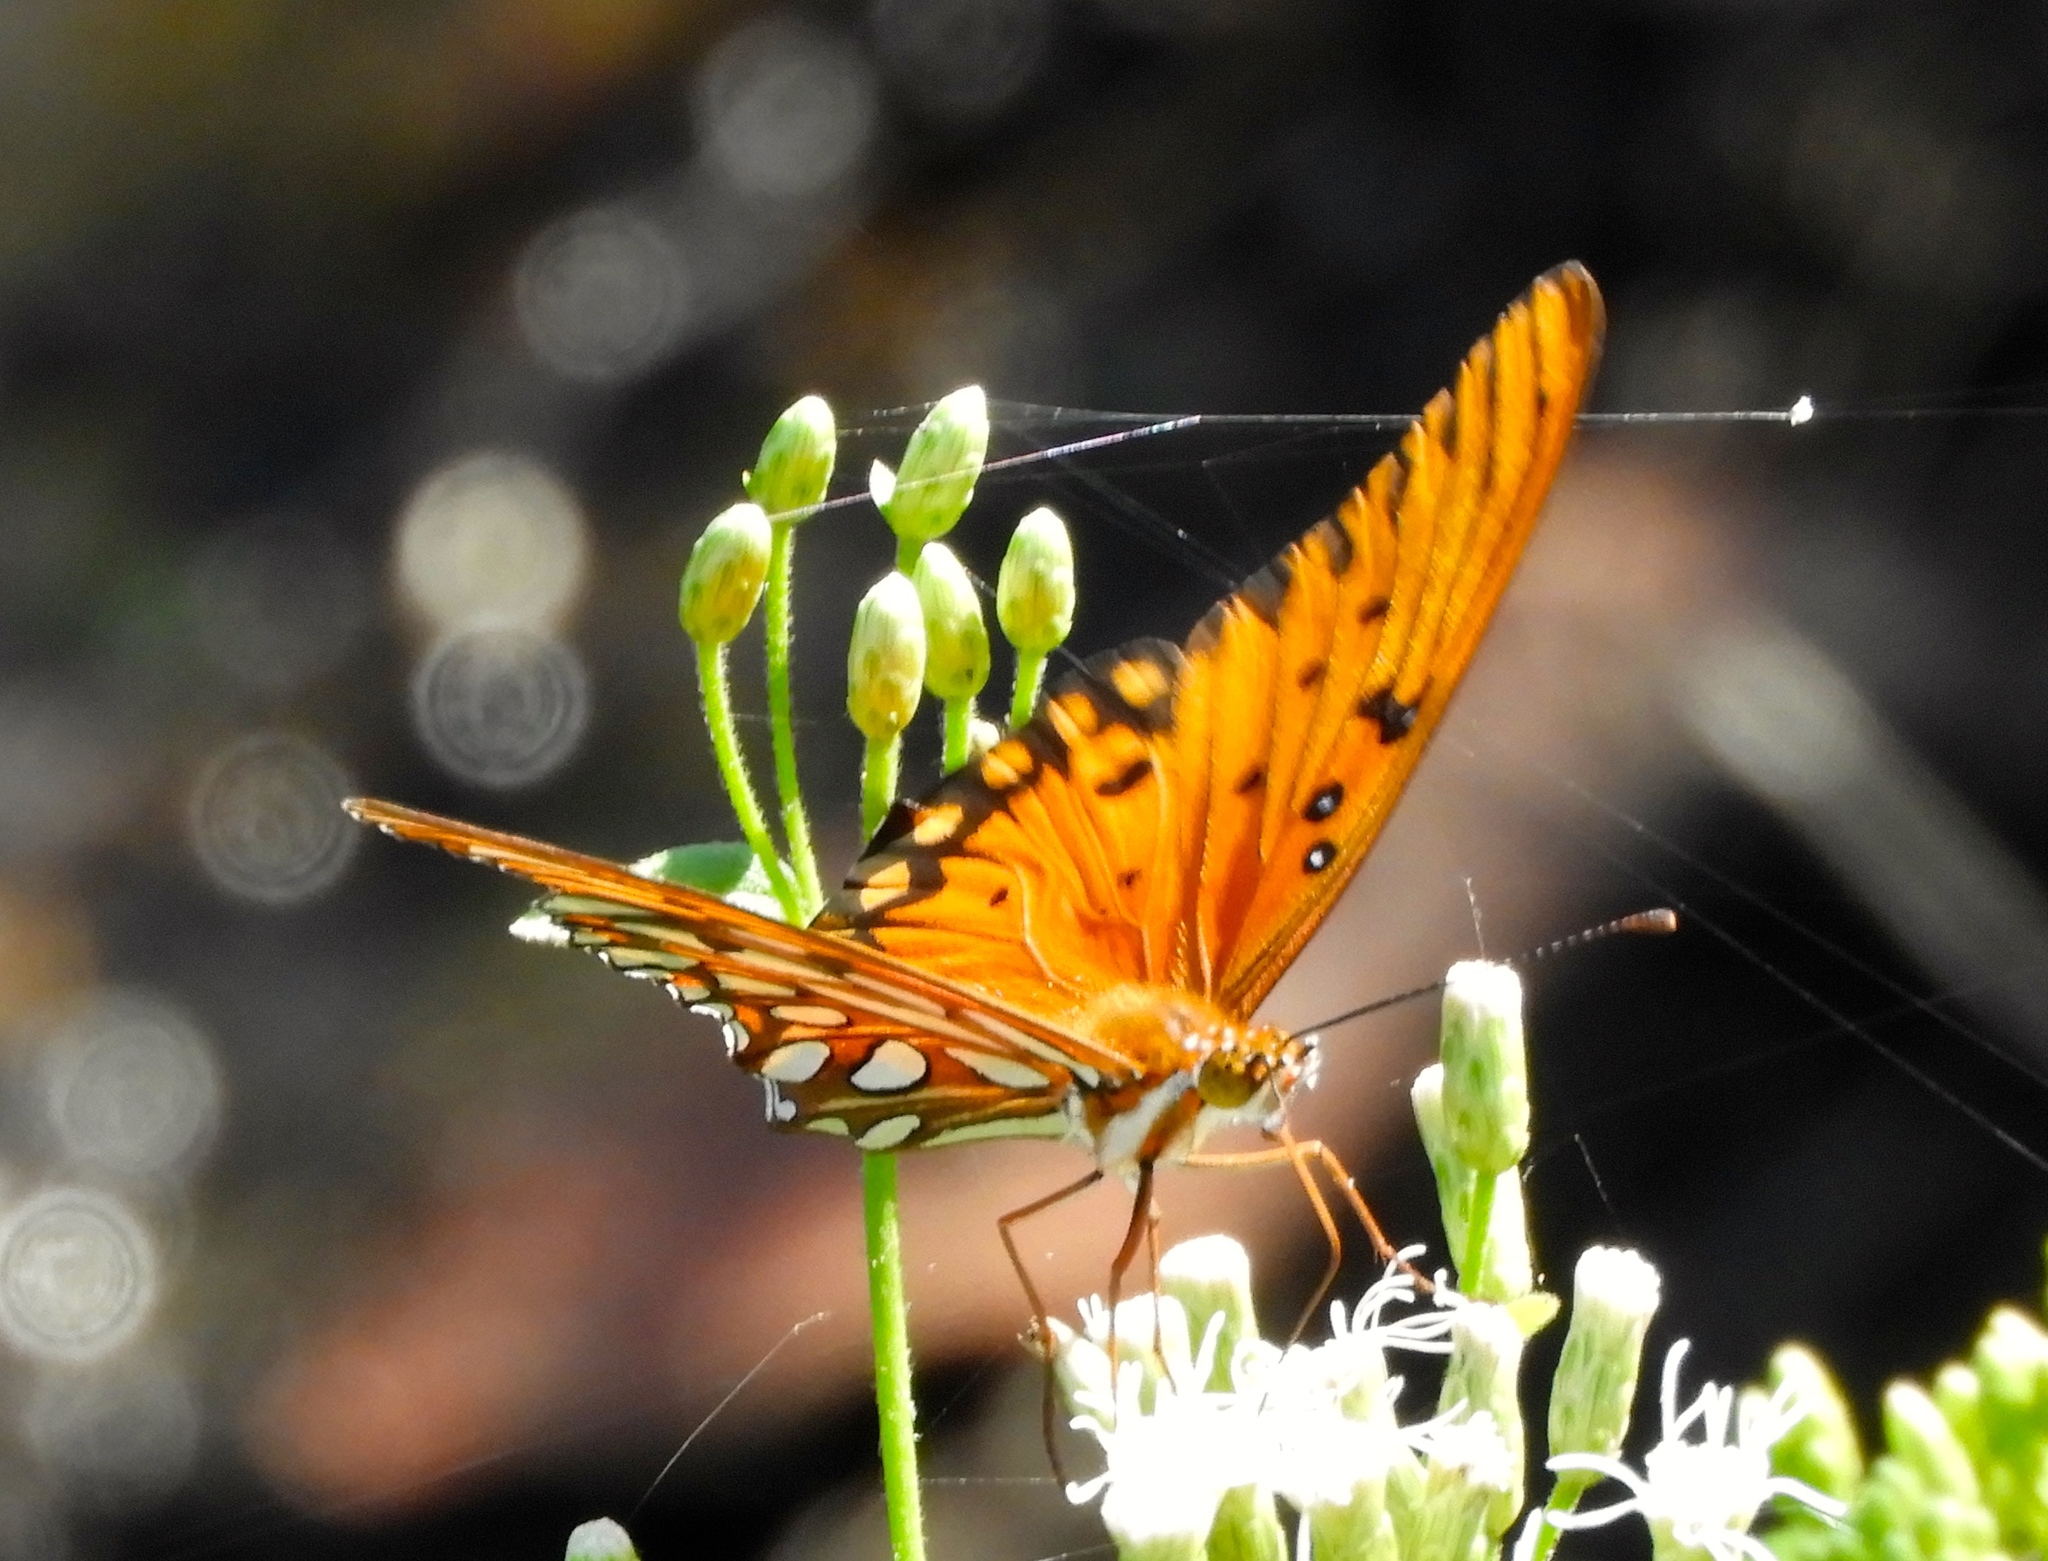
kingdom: Animalia
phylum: Arthropoda
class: Insecta
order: Lepidoptera
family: Nymphalidae
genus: Dione
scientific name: Dione vanillae
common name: Gulf fritillary
